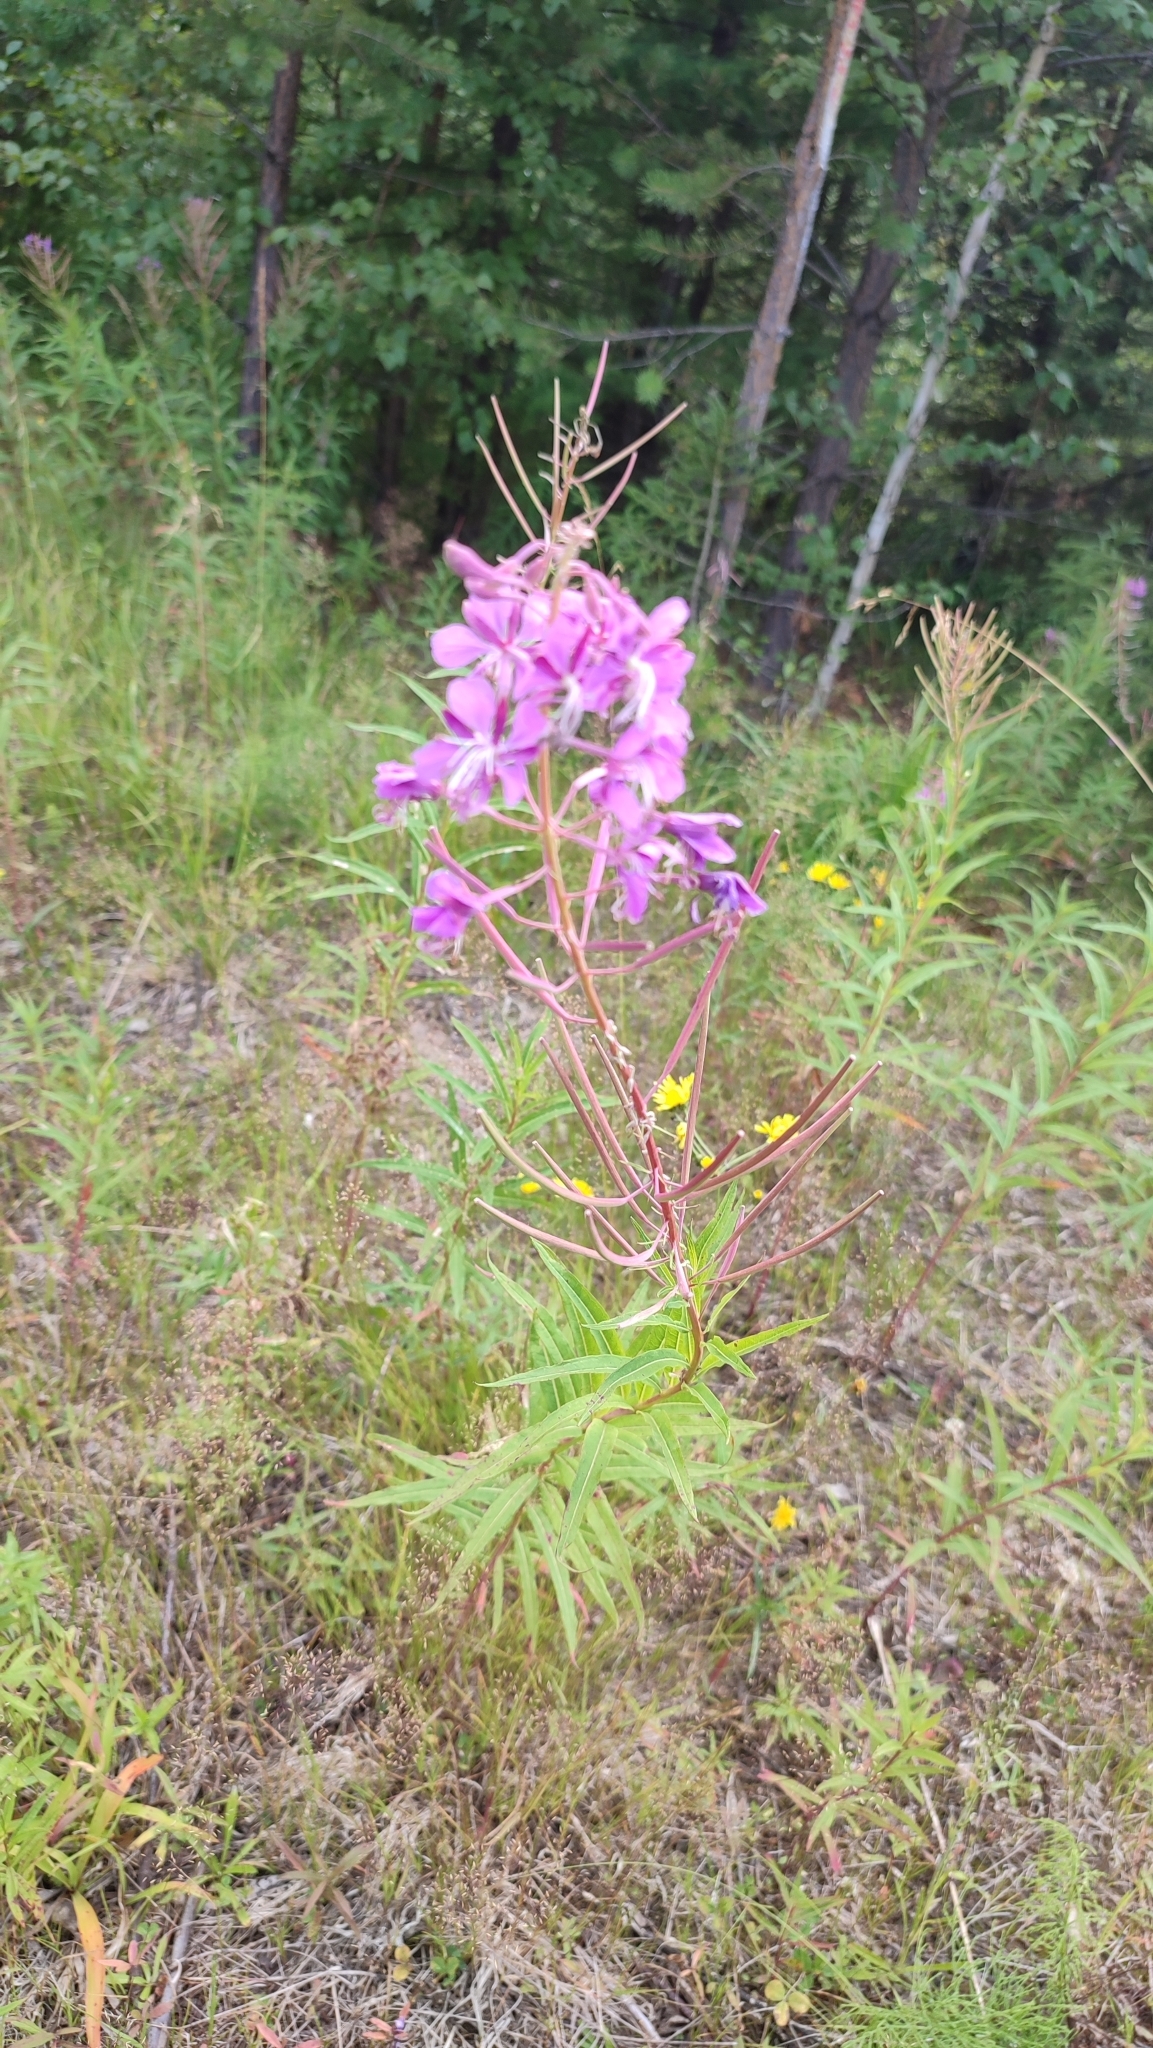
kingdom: Plantae
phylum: Tracheophyta
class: Magnoliopsida
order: Myrtales
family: Onagraceae
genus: Chamaenerion
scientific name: Chamaenerion angustifolium
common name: Fireweed
